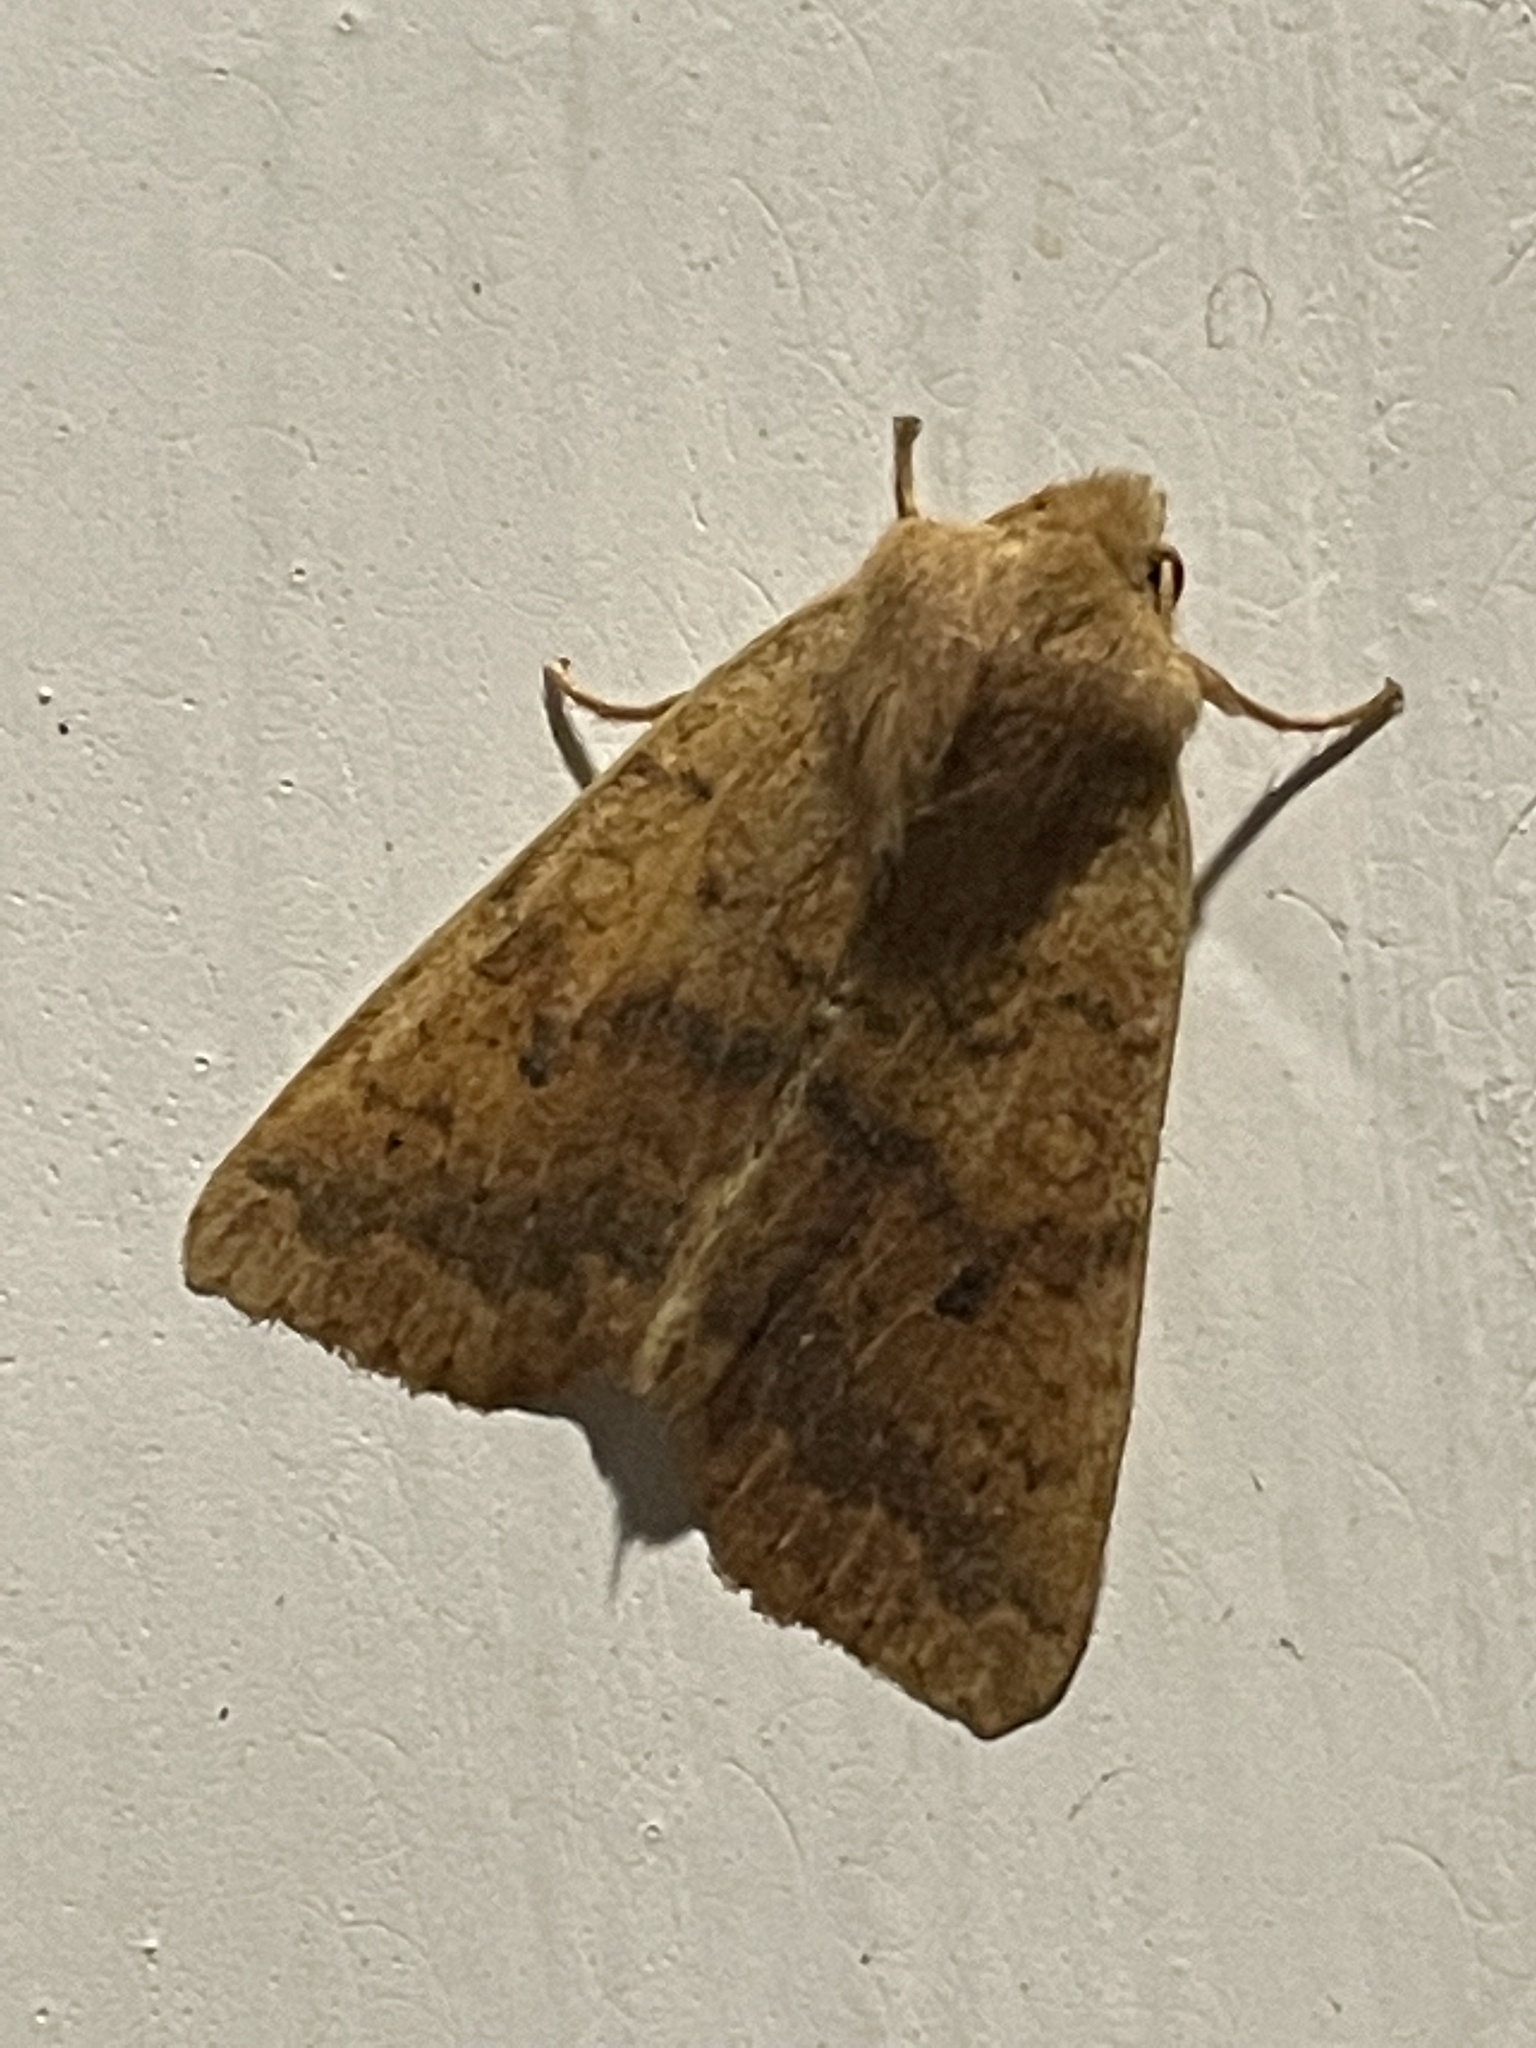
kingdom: Animalia
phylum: Arthropoda
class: Insecta
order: Lepidoptera
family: Noctuidae
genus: Agrochola
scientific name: Agrochola bicolorago
